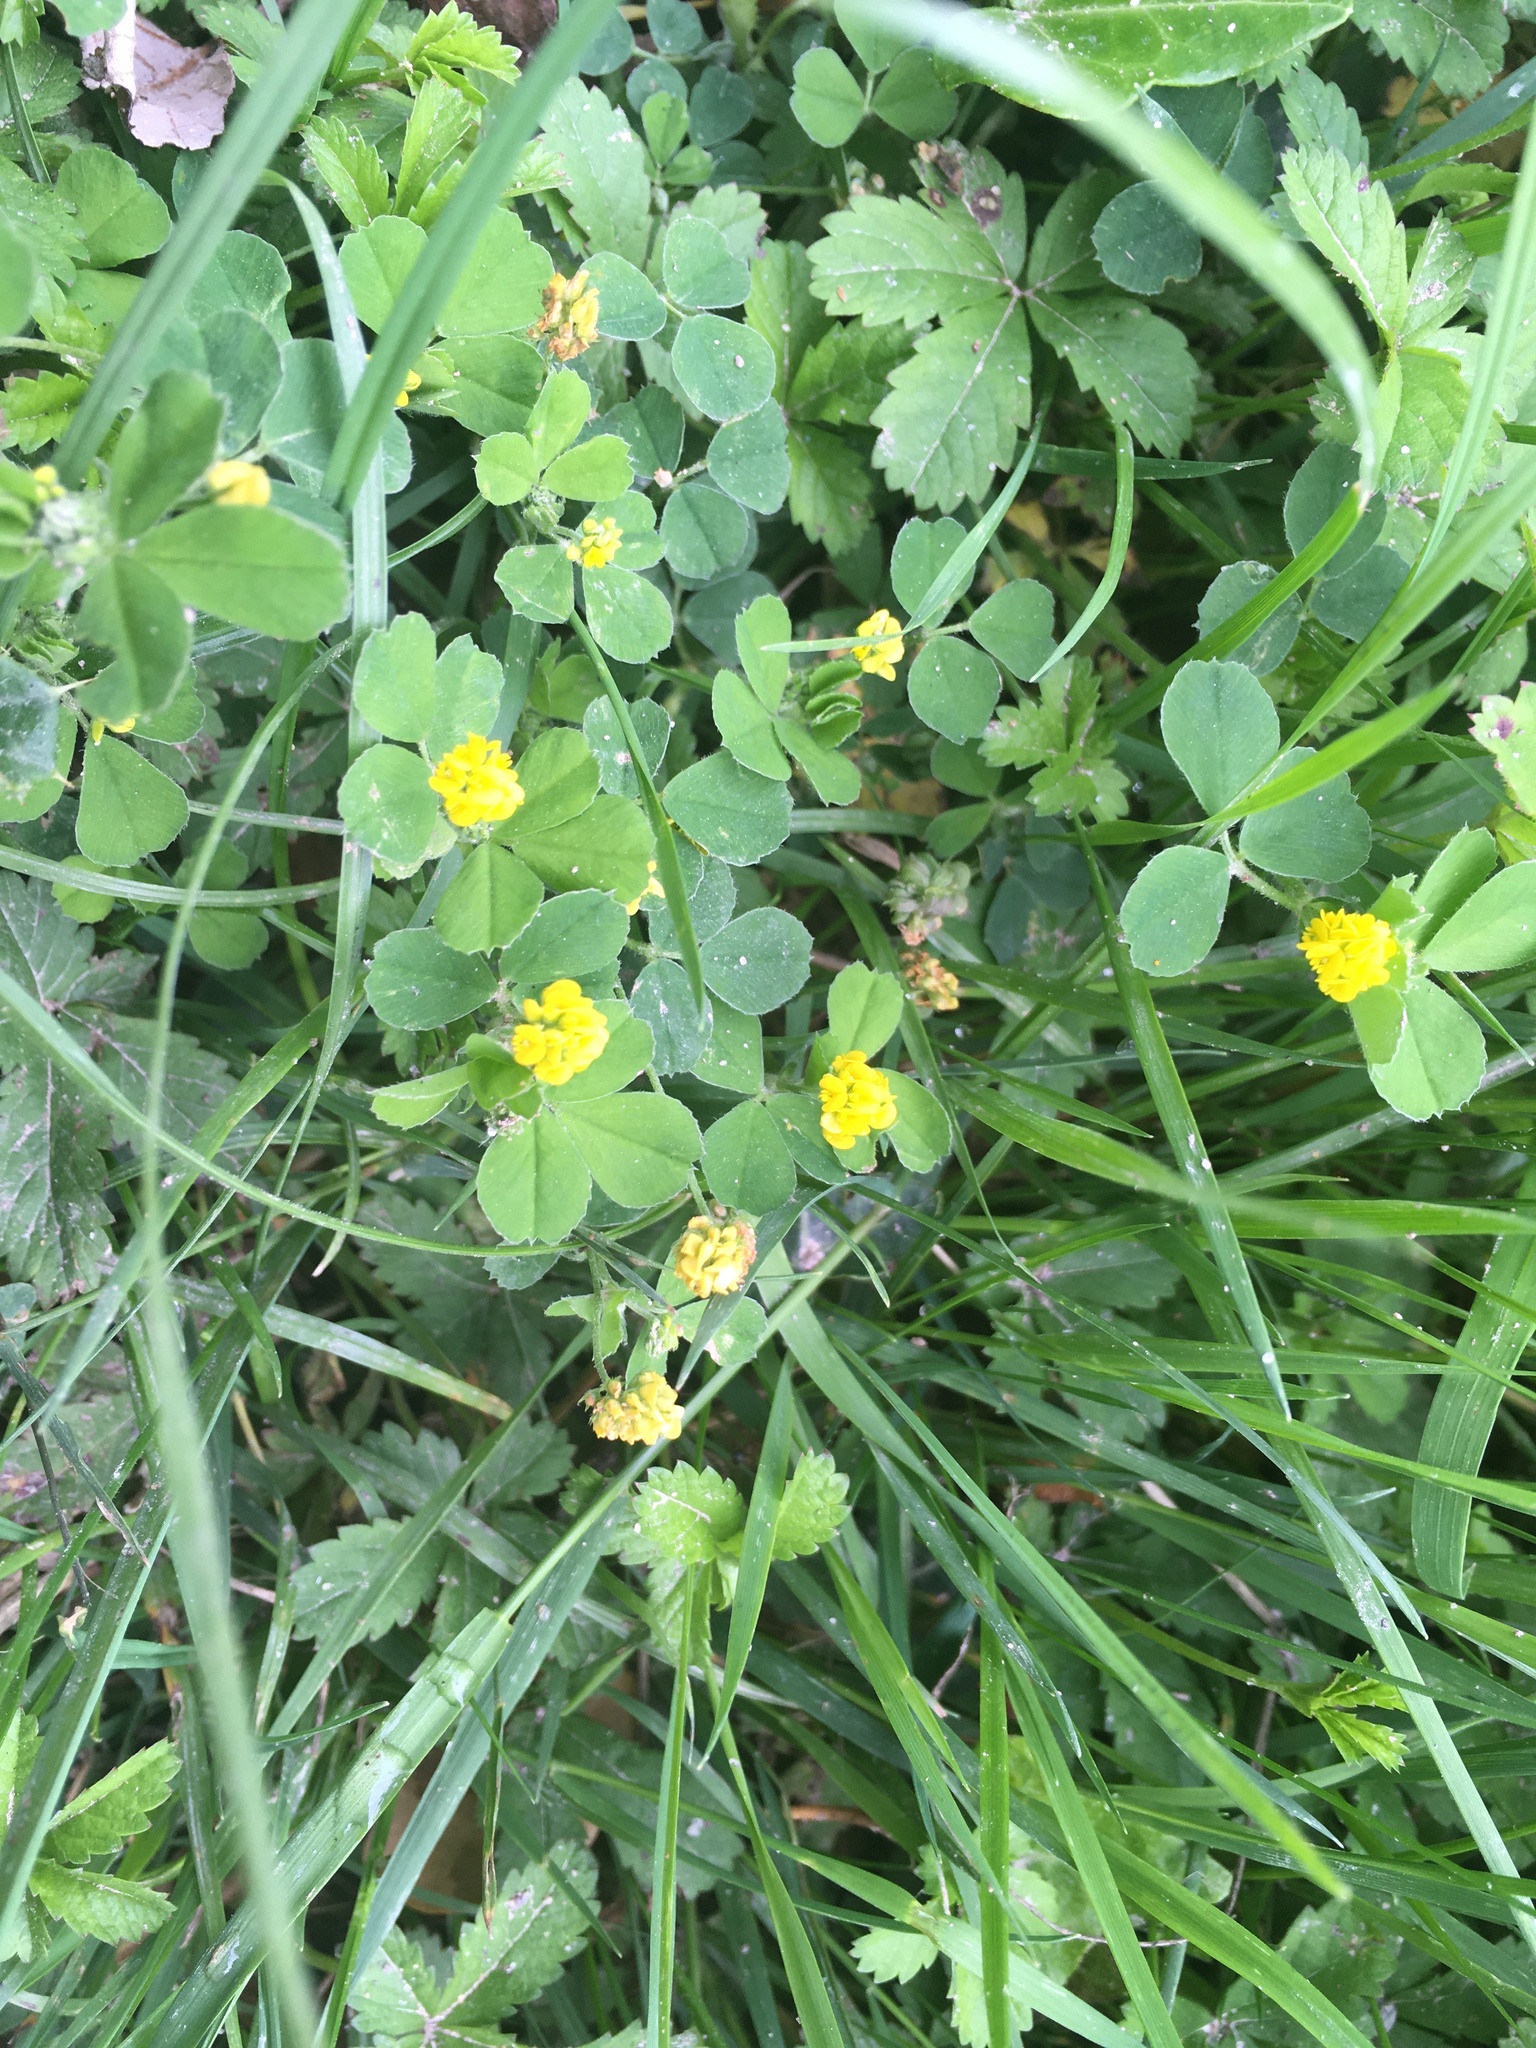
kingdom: Plantae
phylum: Tracheophyta
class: Magnoliopsida
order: Fabales
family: Fabaceae
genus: Medicago
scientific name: Medicago lupulina
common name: Black medick
